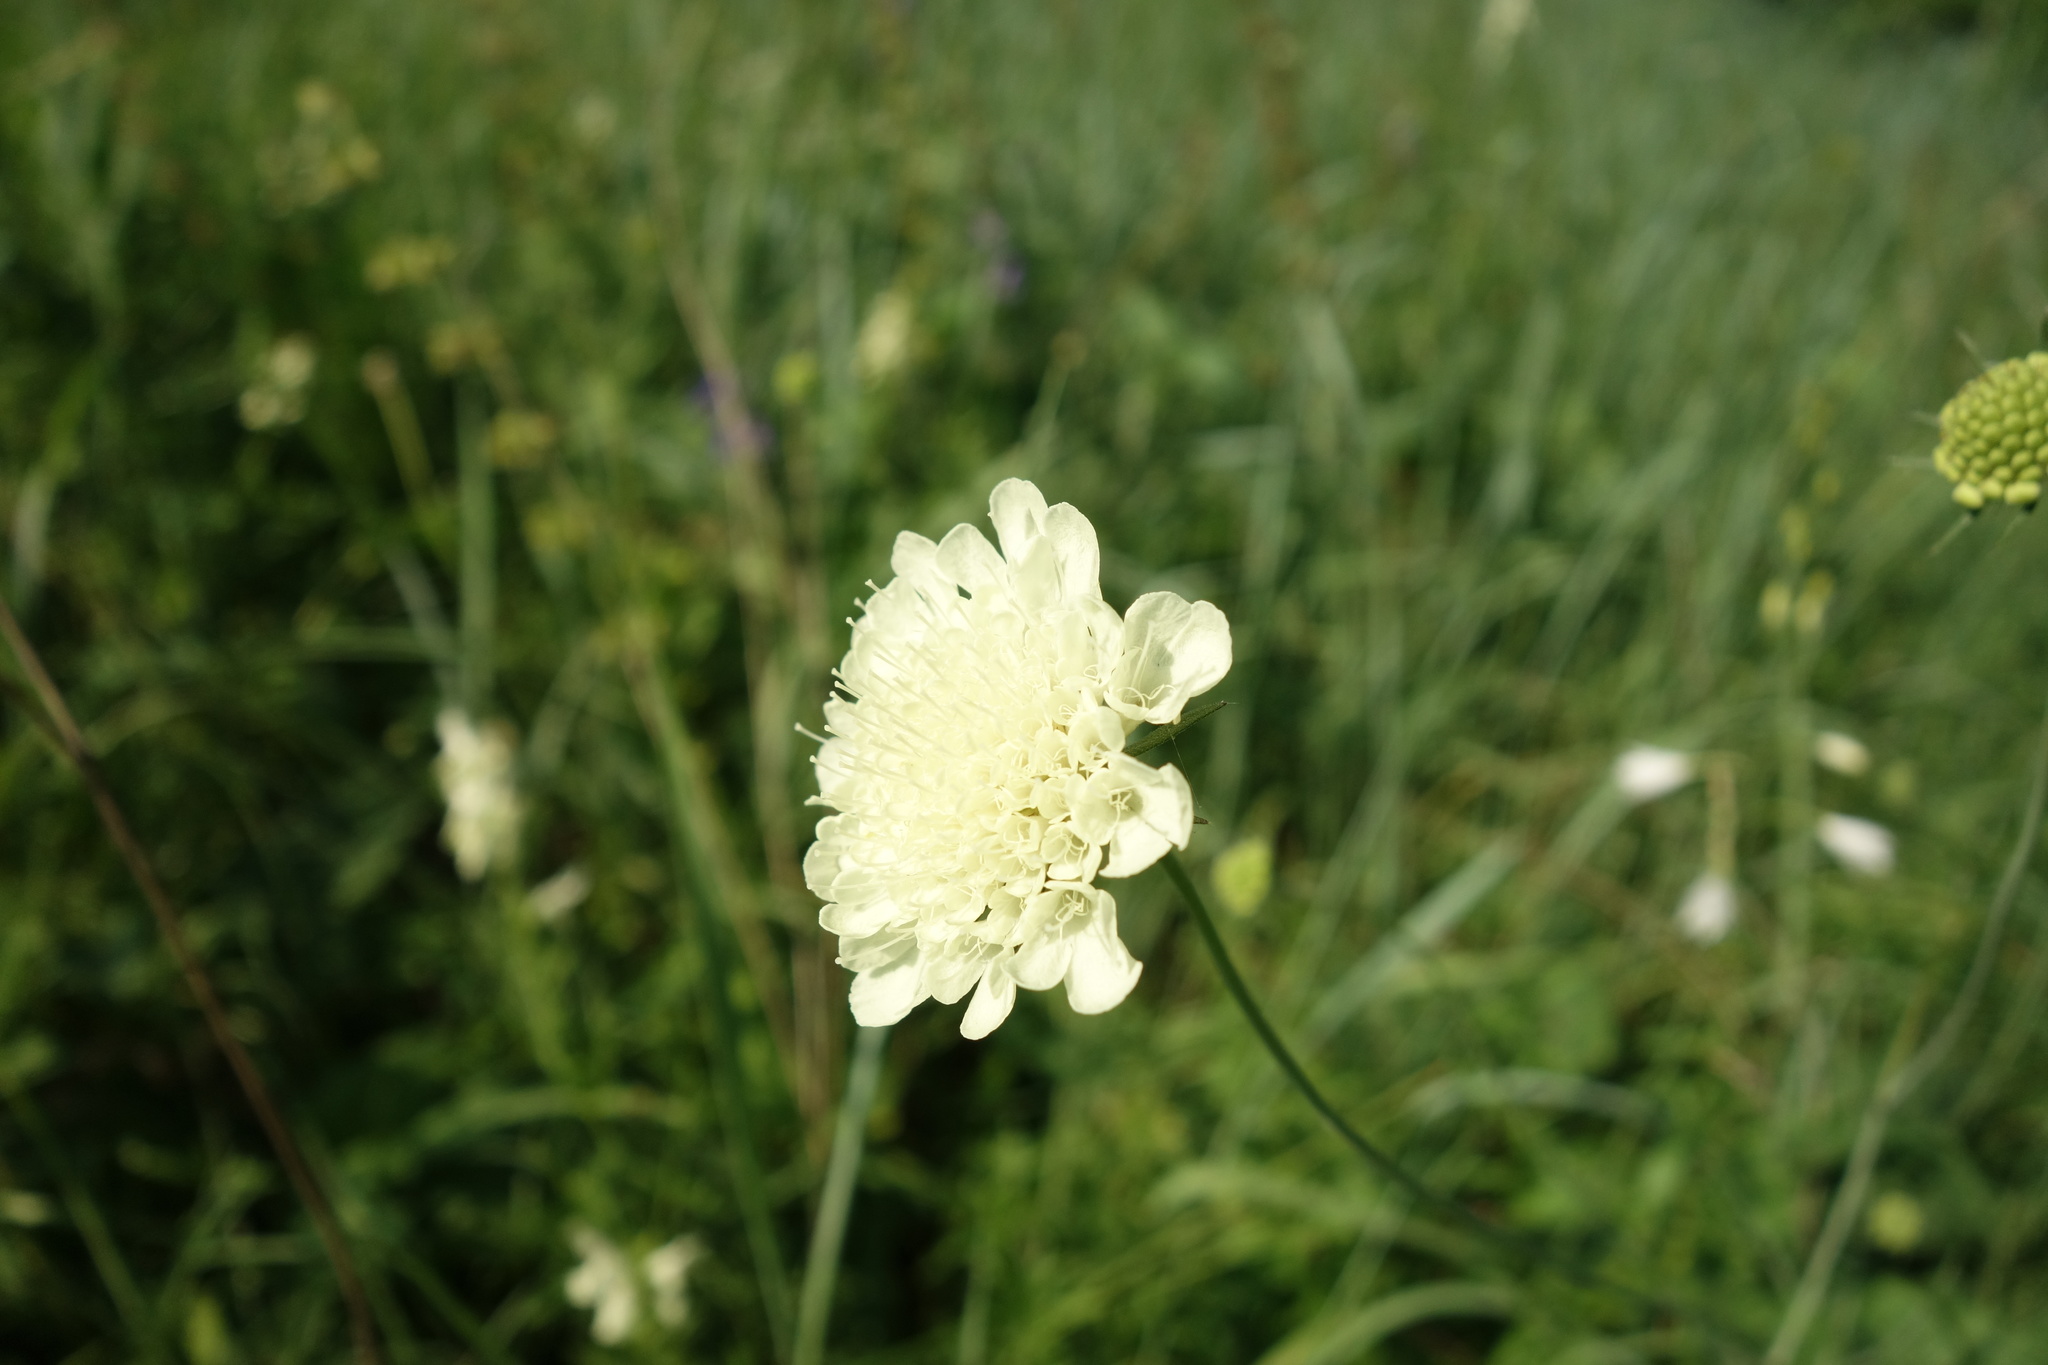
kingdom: Plantae
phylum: Tracheophyta
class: Magnoliopsida
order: Dipsacales
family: Caprifoliaceae
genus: Scabiosa
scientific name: Scabiosa ochroleuca
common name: Cream pincushions
